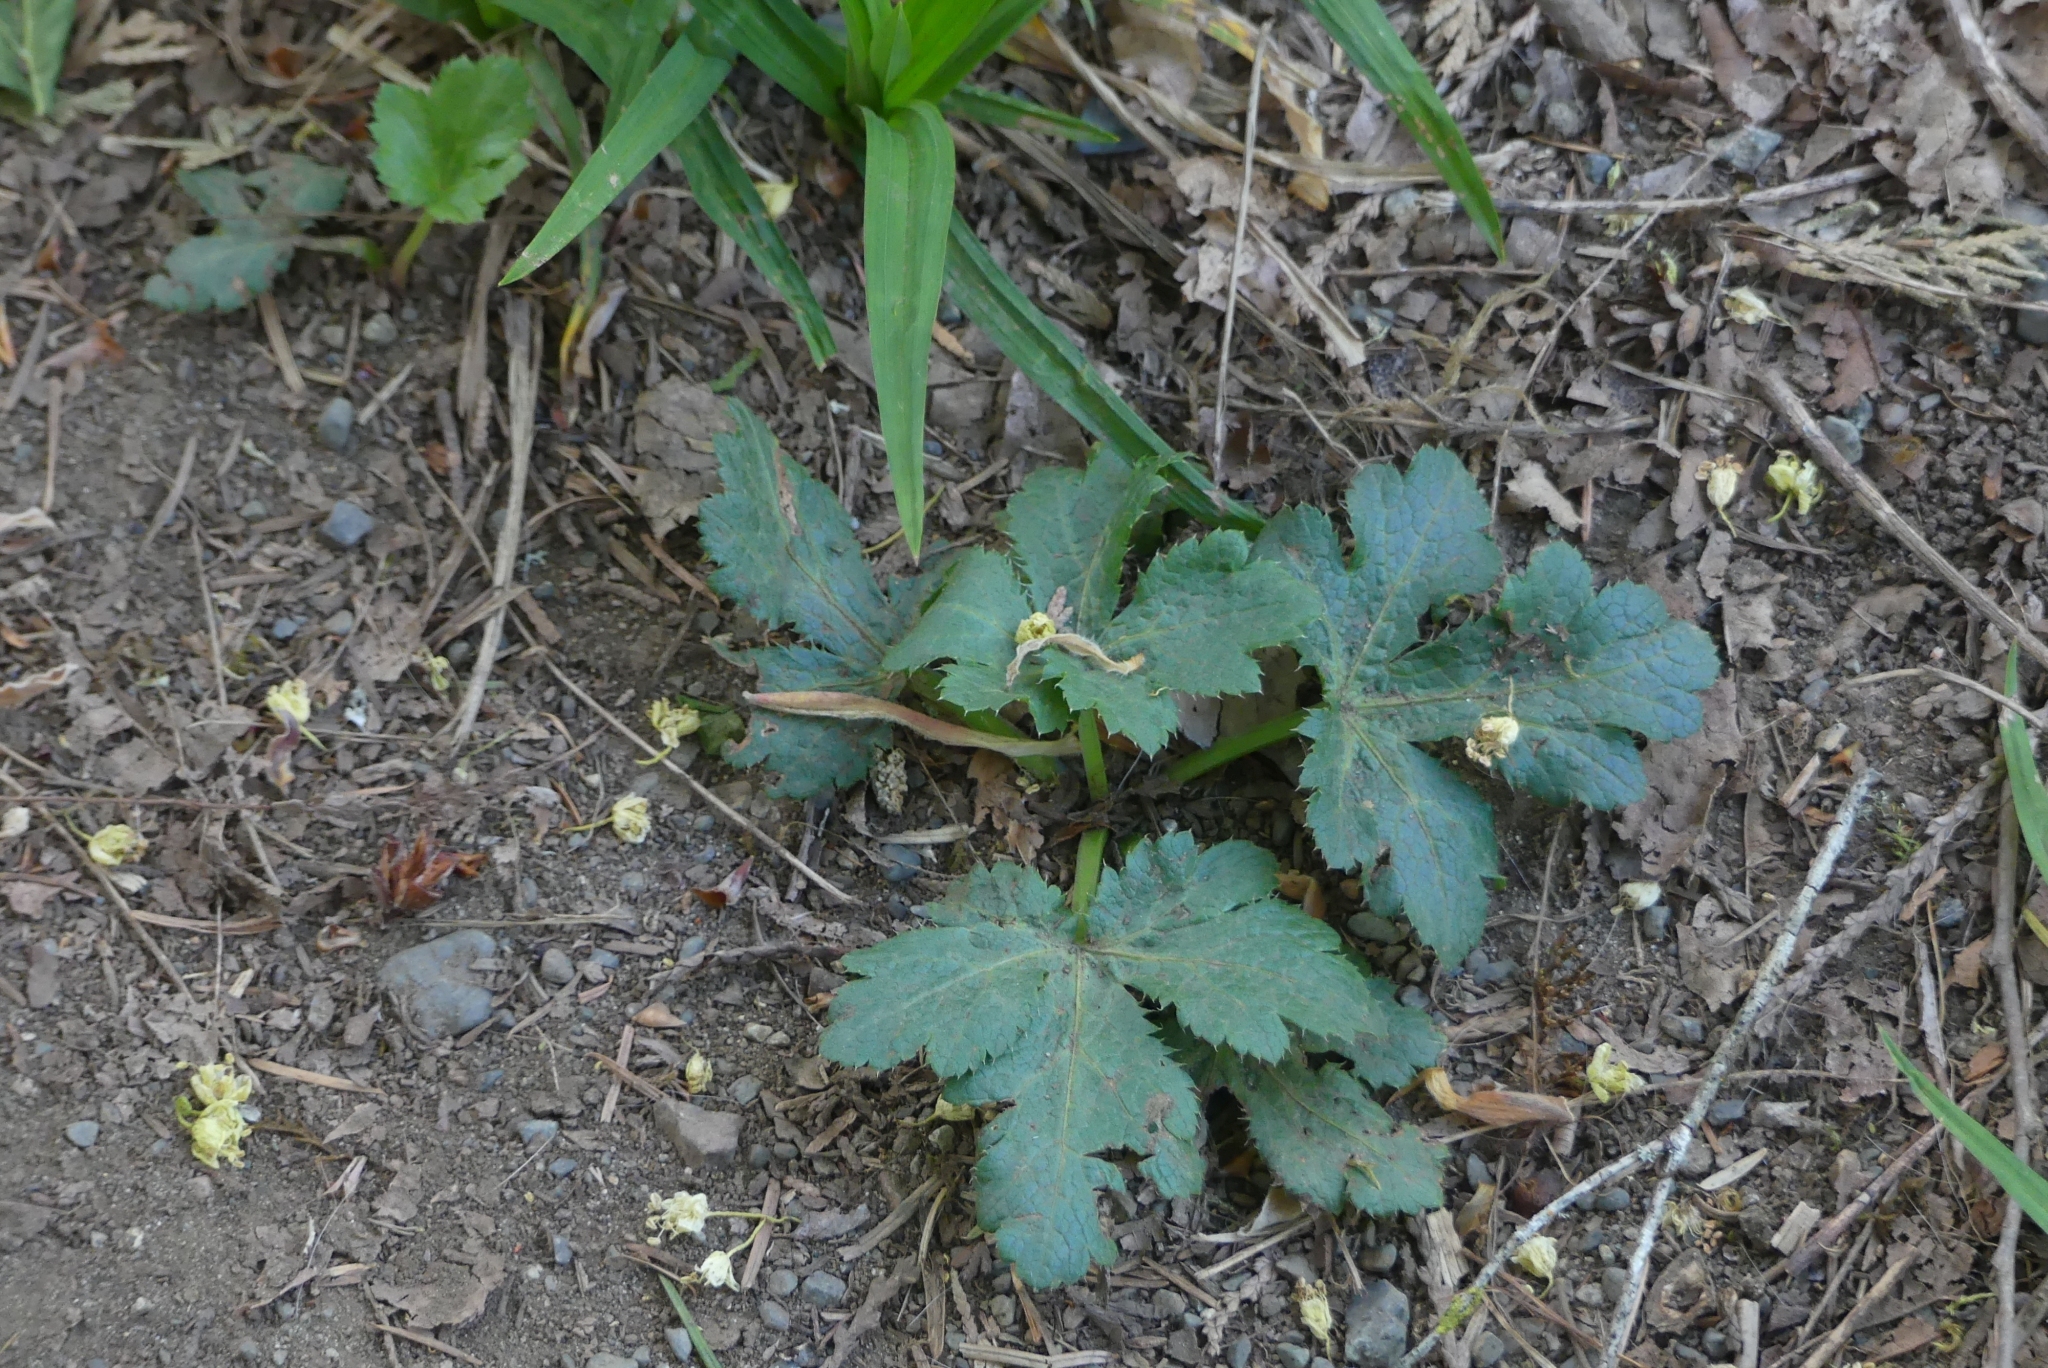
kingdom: Plantae
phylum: Tracheophyta
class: Magnoliopsida
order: Apiales
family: Apiaceae
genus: Sanicula
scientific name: Sanicula crassicaulis
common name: Western snakeroot
